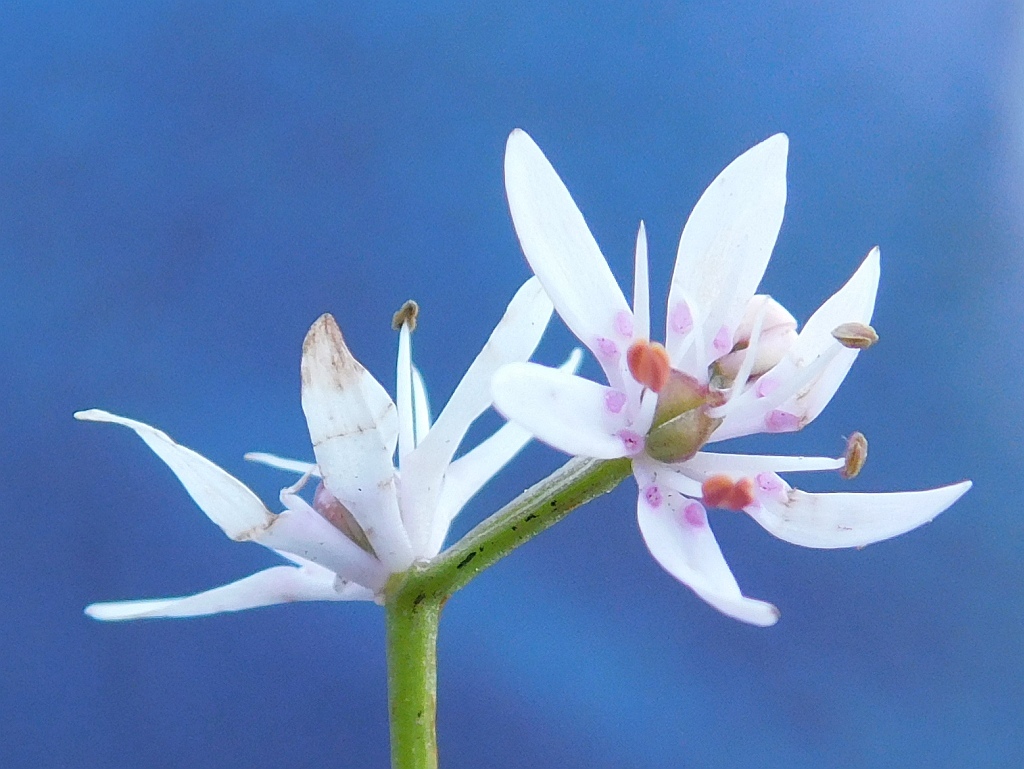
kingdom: Plantae
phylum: Tracheophyta
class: Liliopsida
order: Liliales
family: Colchicaceae
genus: Wurmbea
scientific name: Wurmbea punctata
